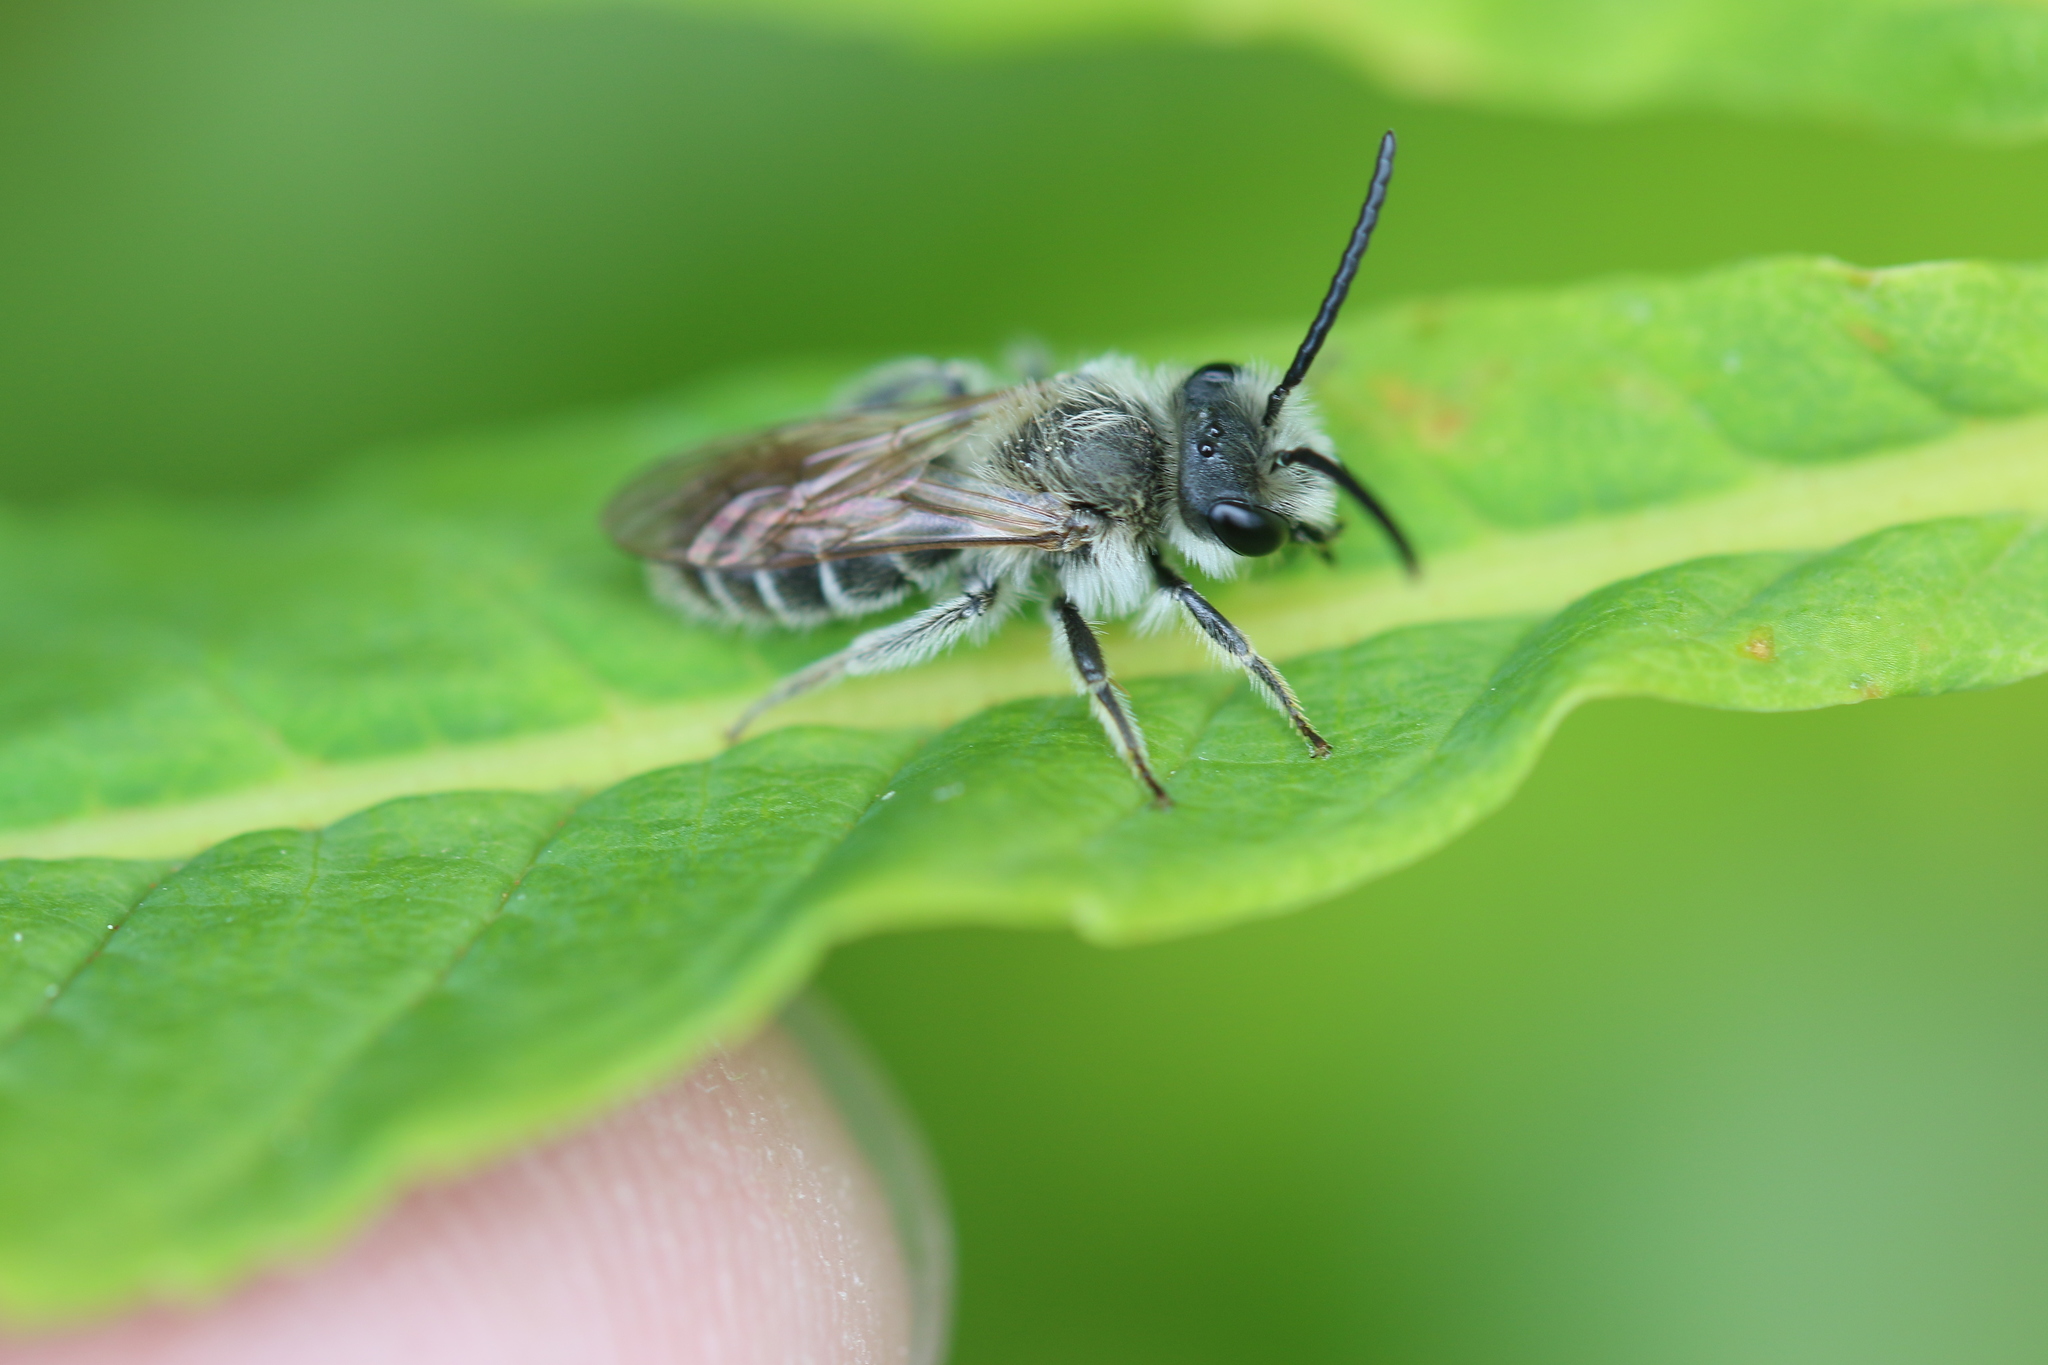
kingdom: Animalia
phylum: Arthropoda
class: Insecta
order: Hymenoptera
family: Andrenidae
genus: Andrena
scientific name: Andrena wilkella
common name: Wilke's mining bee
